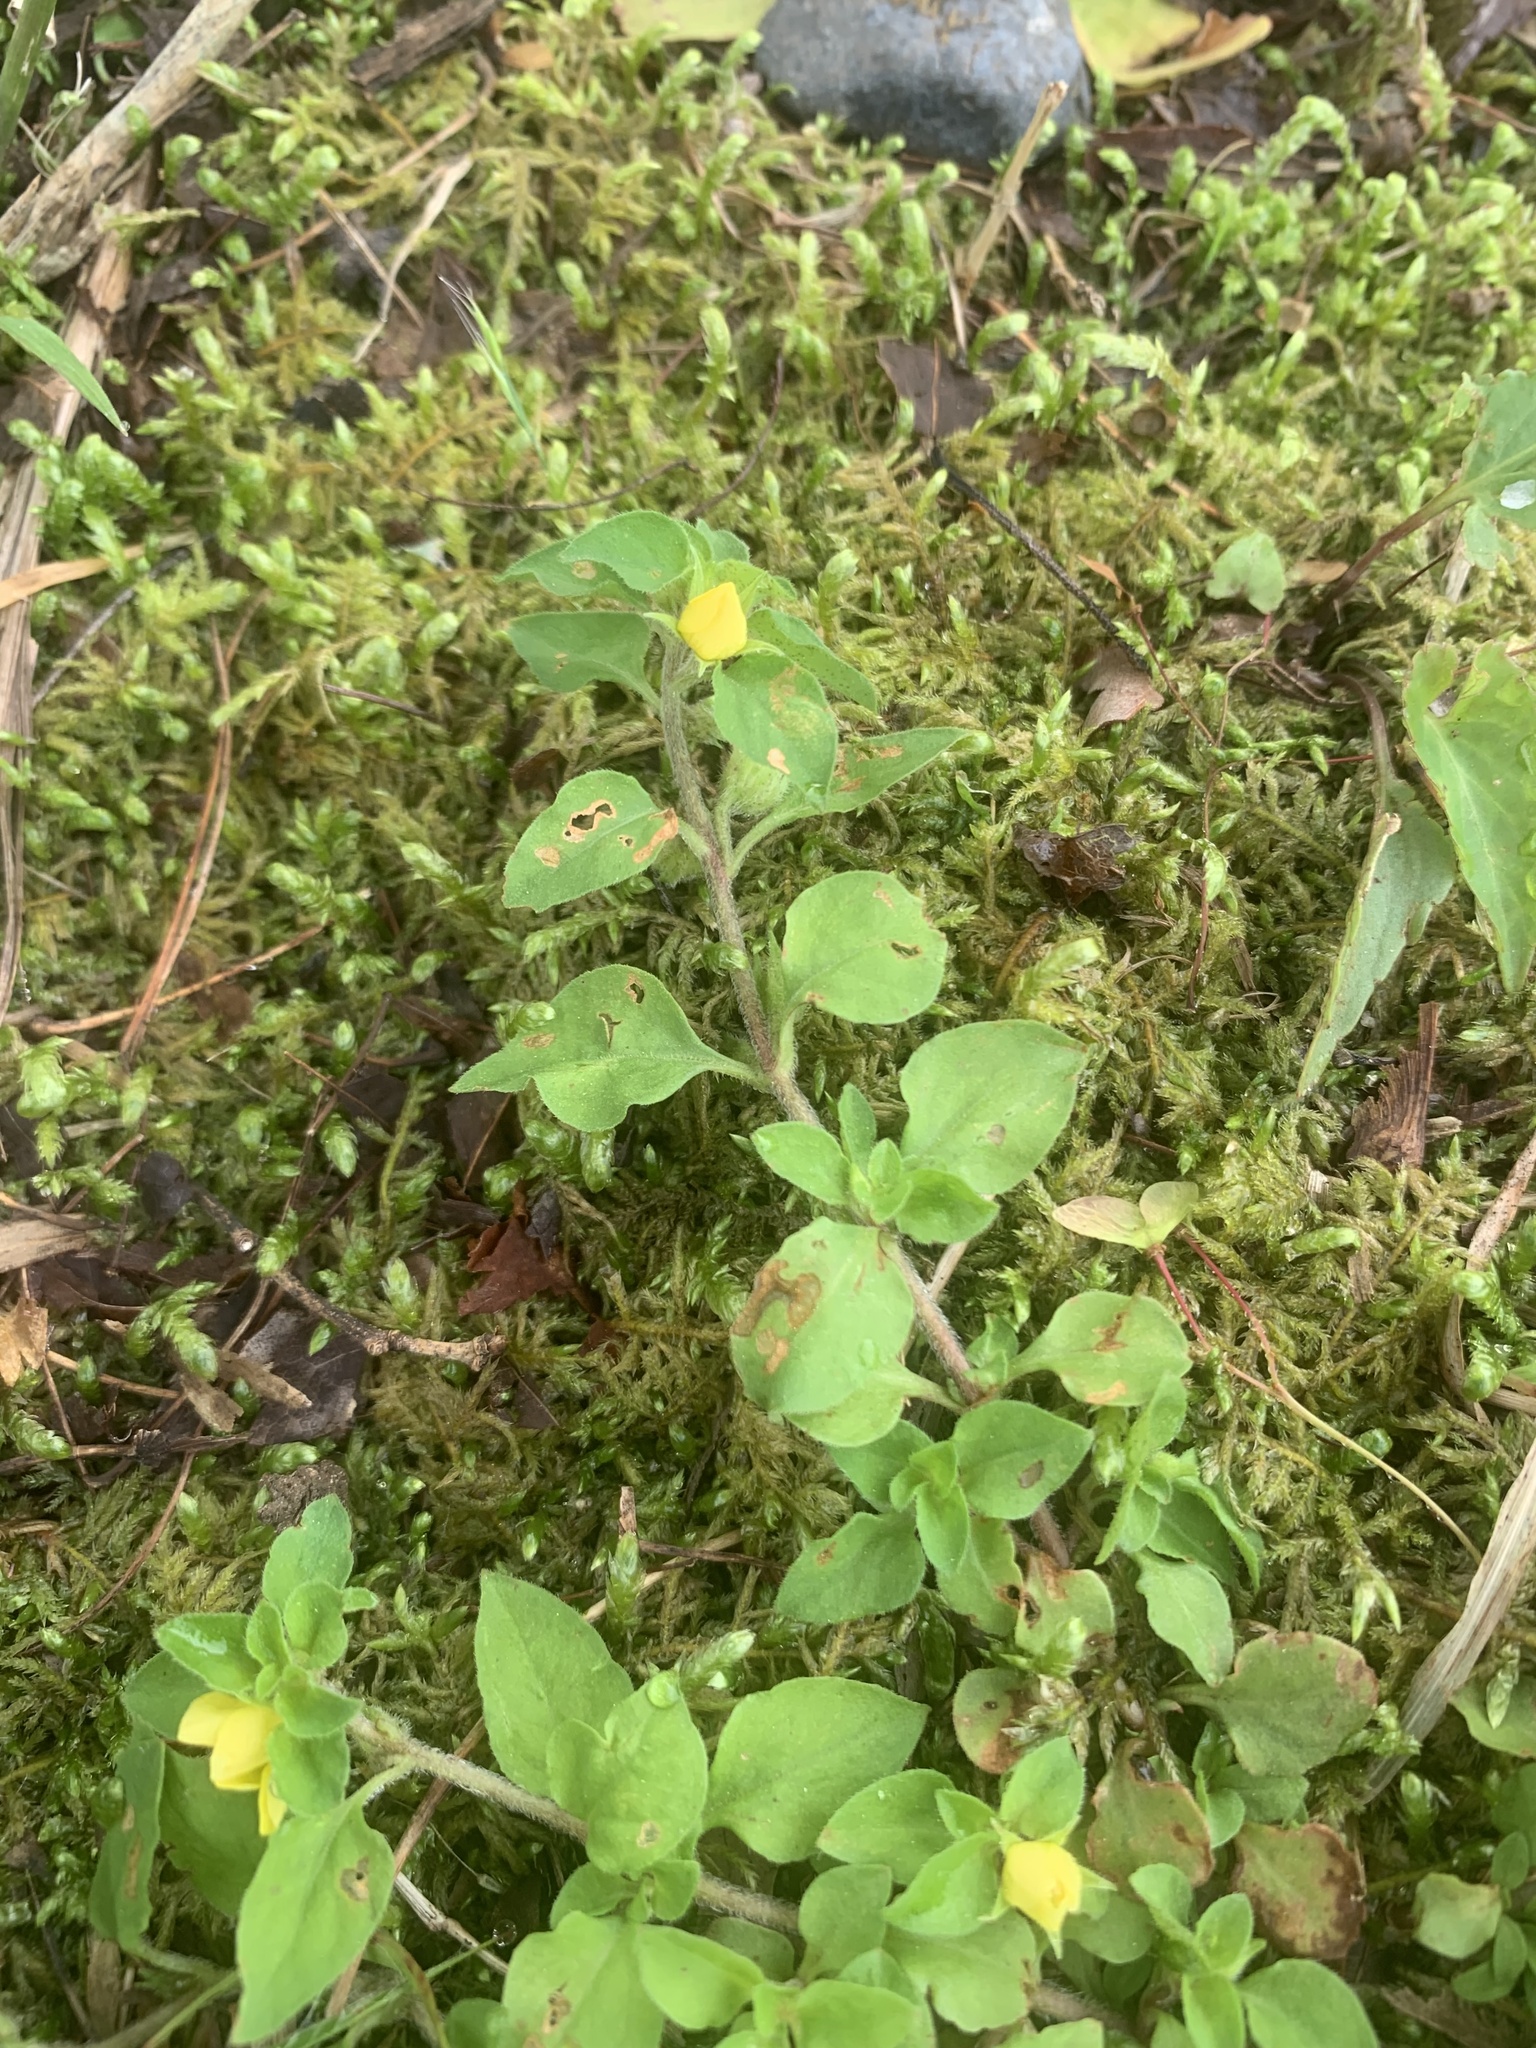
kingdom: Plantae
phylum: Tracheophyta
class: Magnoliopsida
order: Ericales
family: Primulaceae
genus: Lysimachia
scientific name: Lysimachia japonica
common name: Japanese yellow loosestrife
